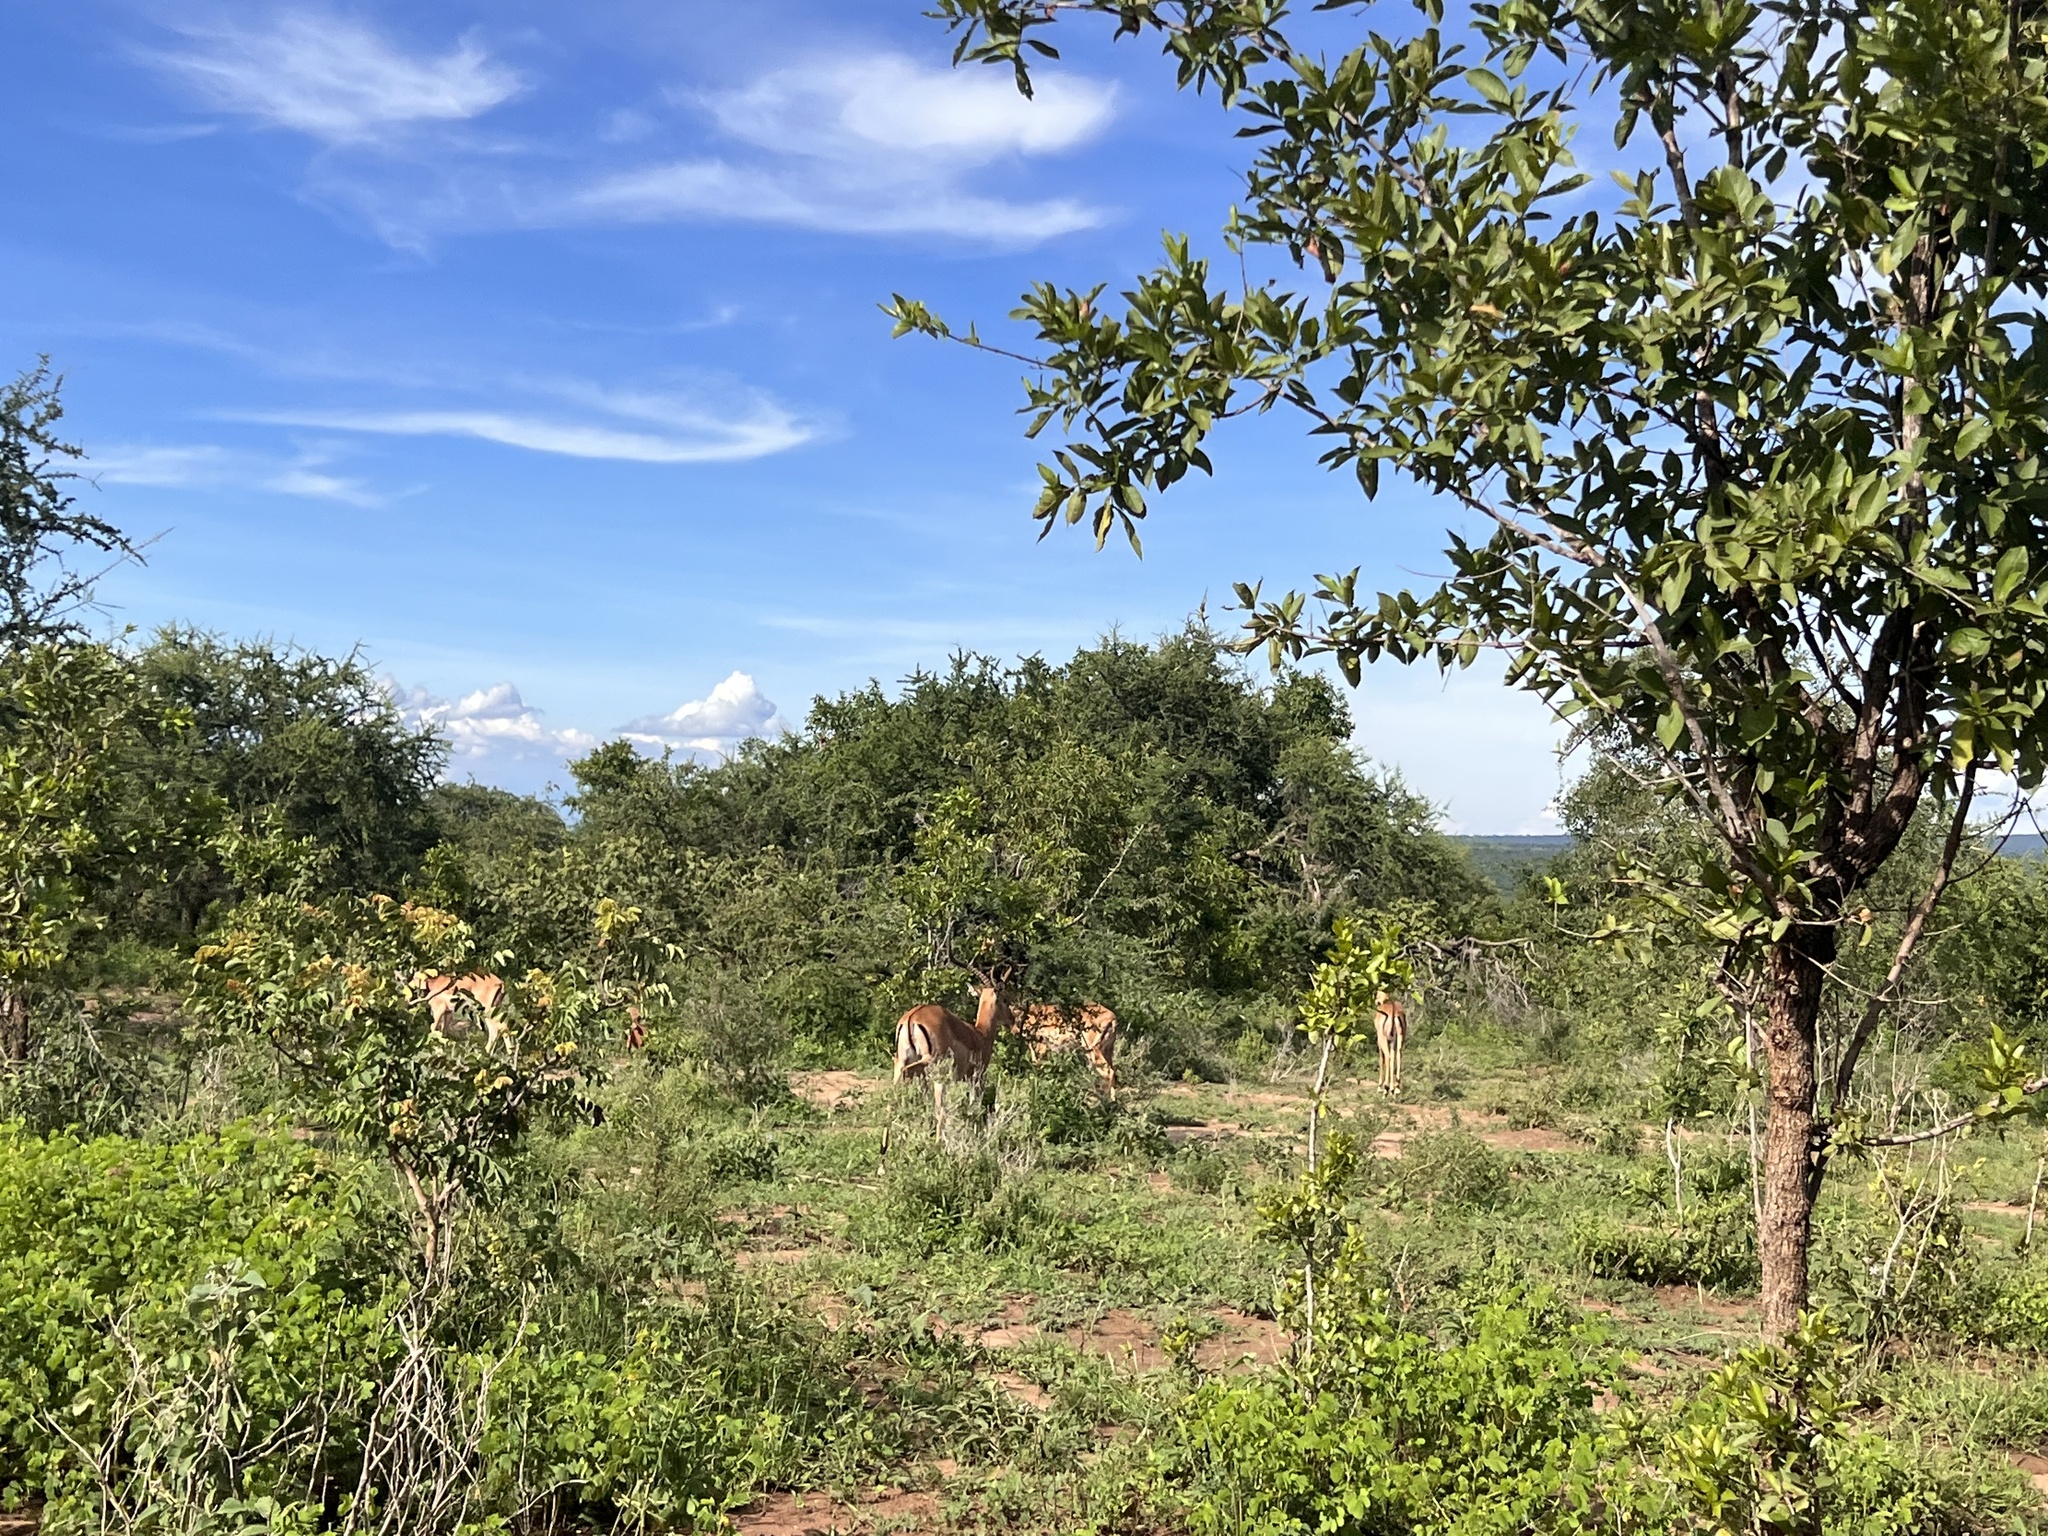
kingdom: Animalia
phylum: Chordata
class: Mammalia
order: Artiodactyla
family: Bovidae
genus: Aepyceros
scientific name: Aepyceros melampus
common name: Impala
